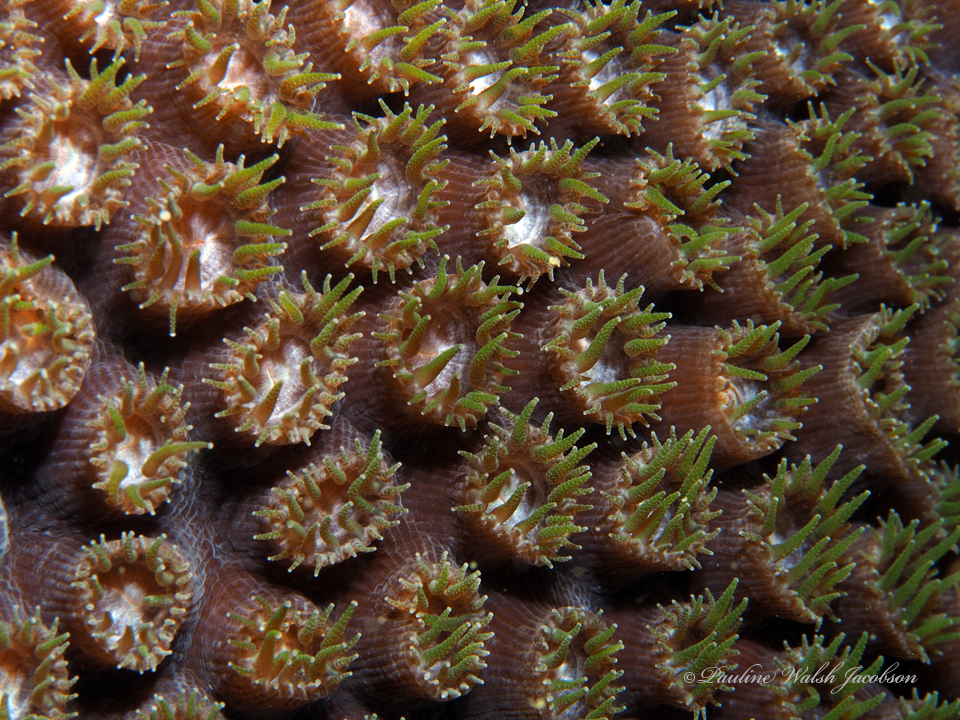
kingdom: Animalia
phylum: Cnidaria
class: Anthozoa
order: Scleractinia
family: Montastraeidae
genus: Montastraea
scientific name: Montastraea cavernosa
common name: Great star coral
